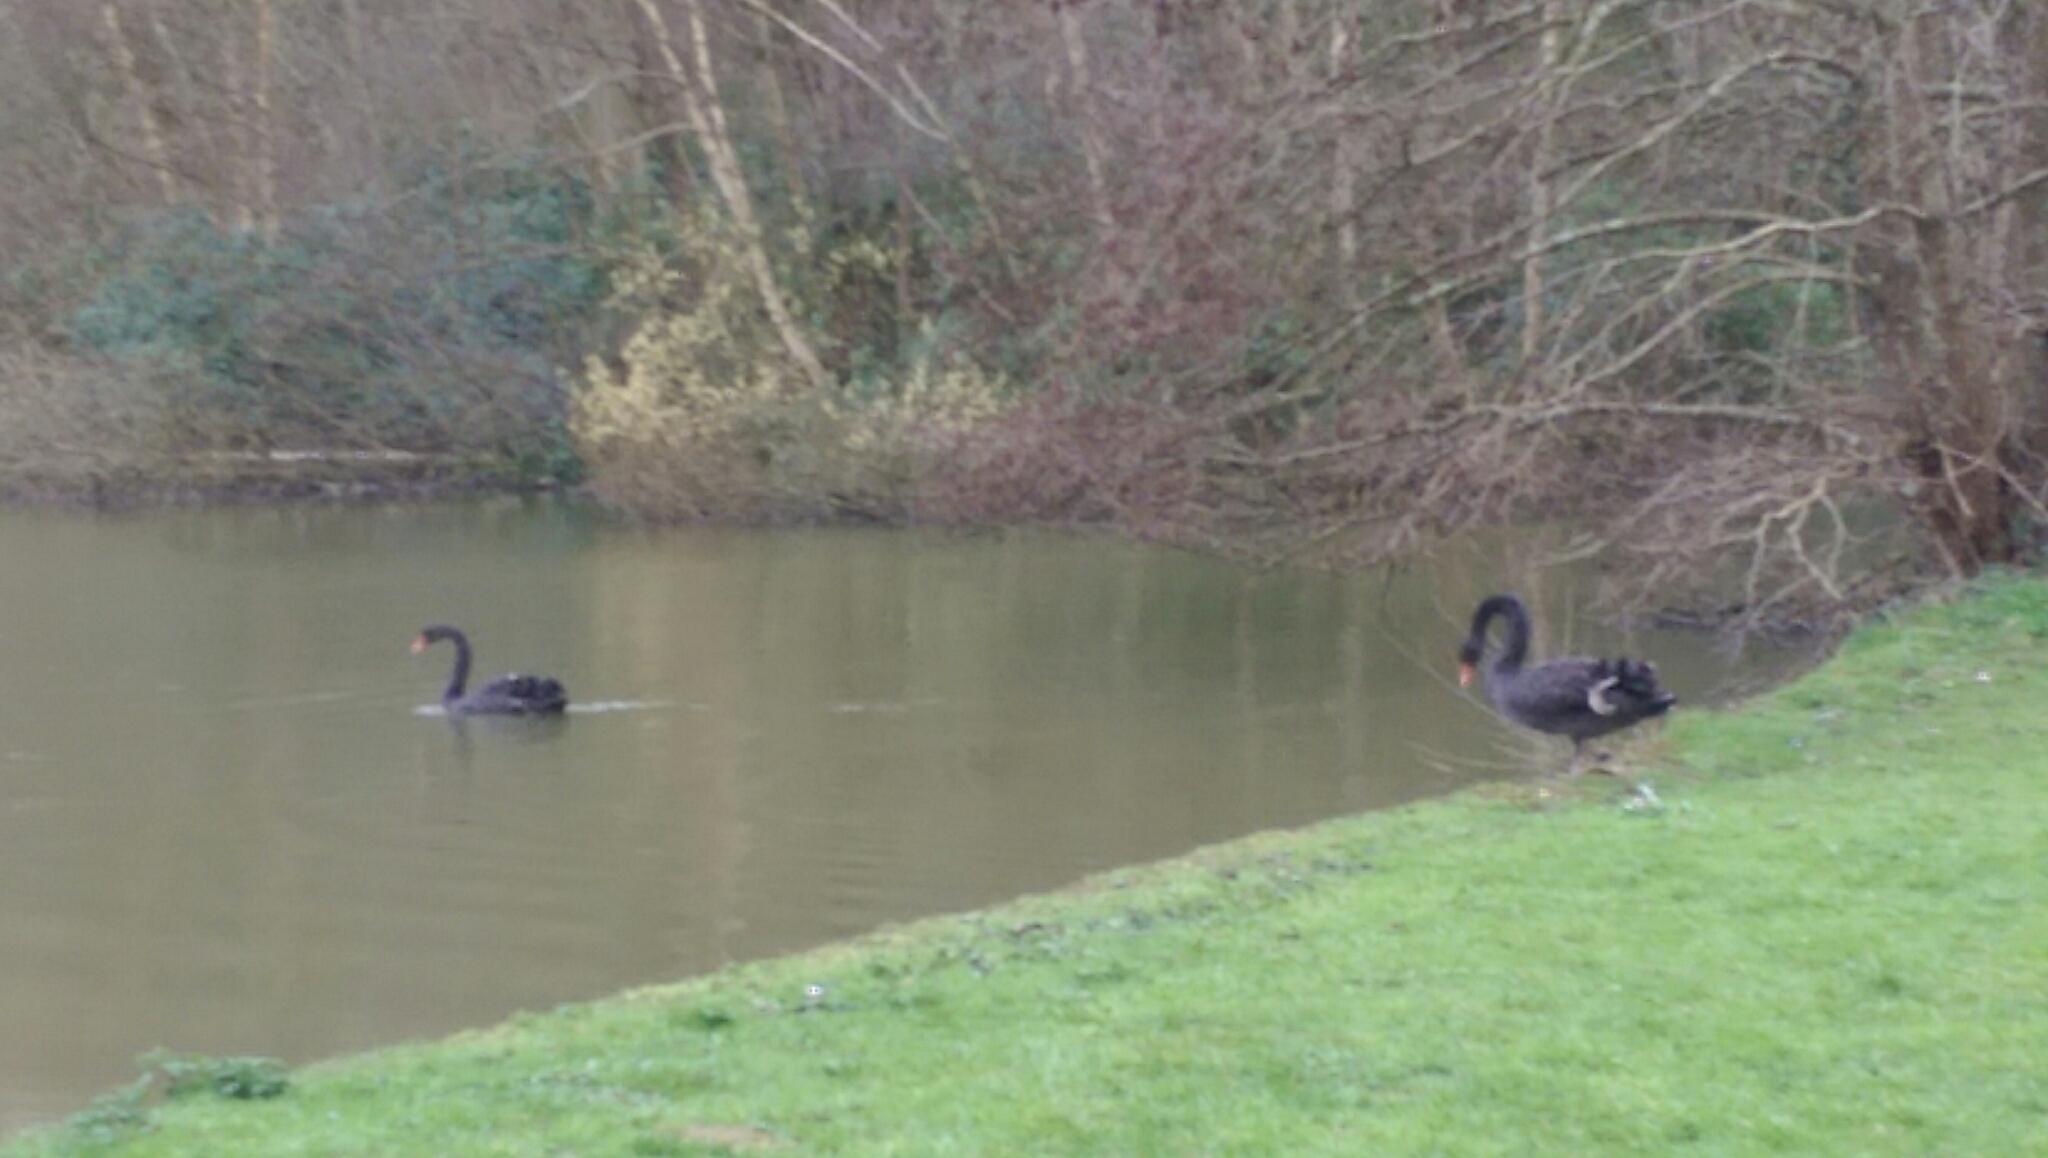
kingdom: Animalia
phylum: Chordata
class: Aves
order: Anseriformes
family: Anatidae
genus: Cygnus
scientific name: Cygnus atratus
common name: Black swan
